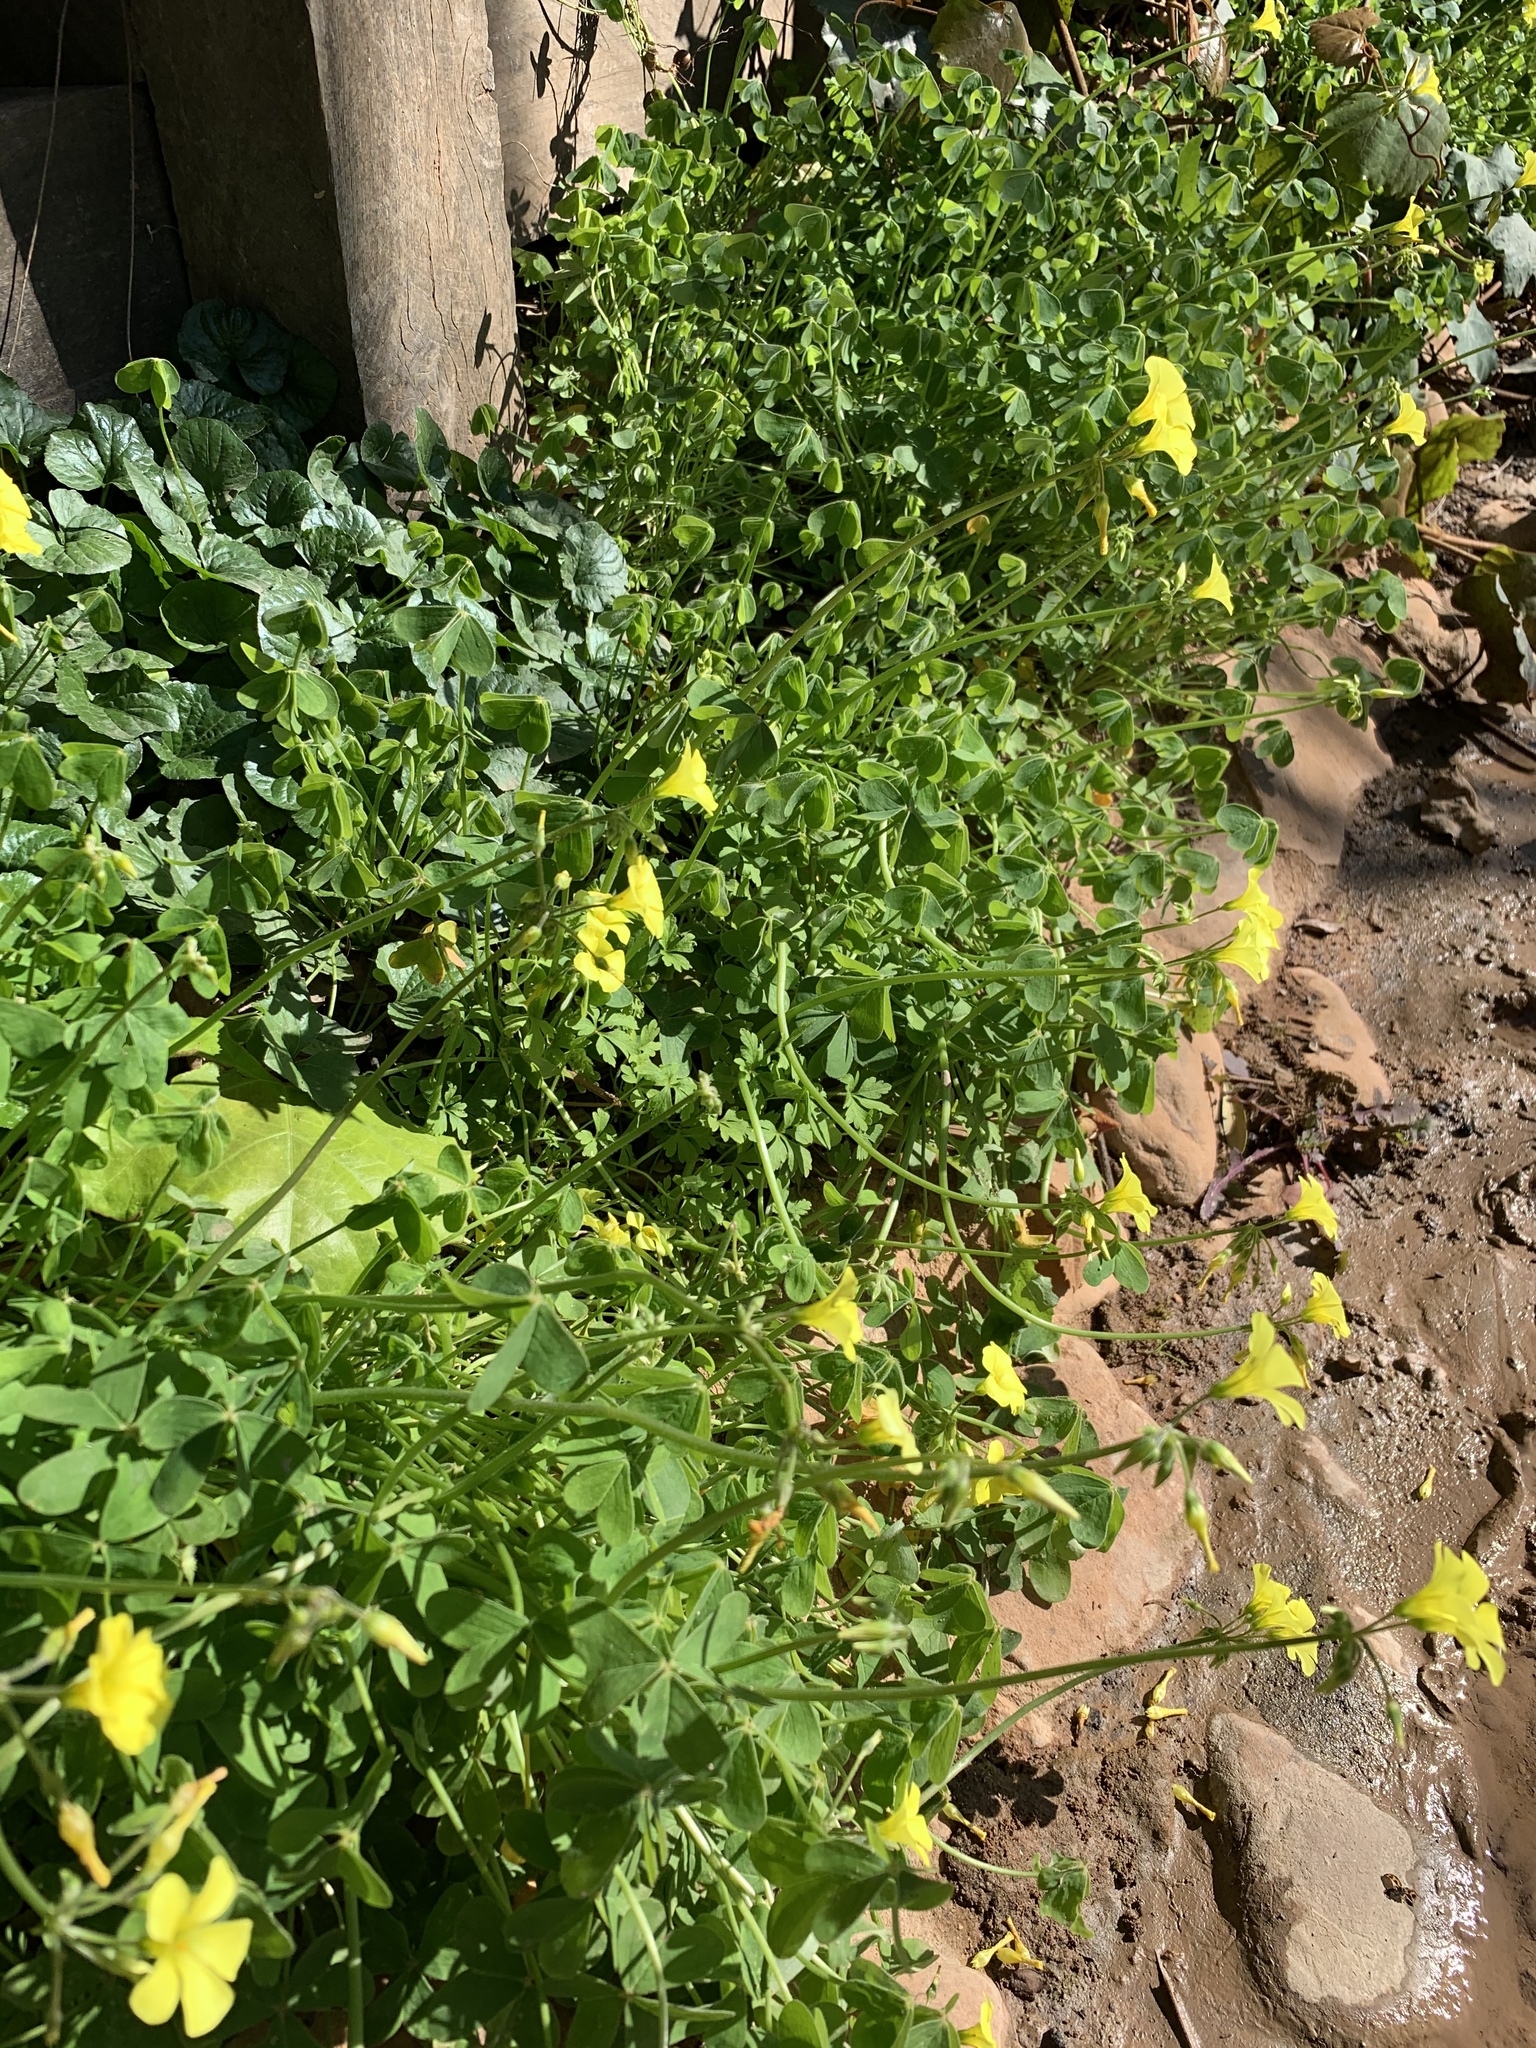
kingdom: Plantae
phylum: Tracheophyta
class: Magnoliopsida
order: Oxalidales
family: Oxalidaceae
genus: Oxalis
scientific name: Oxalis pes-caprae
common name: Bermuda-buttercup
